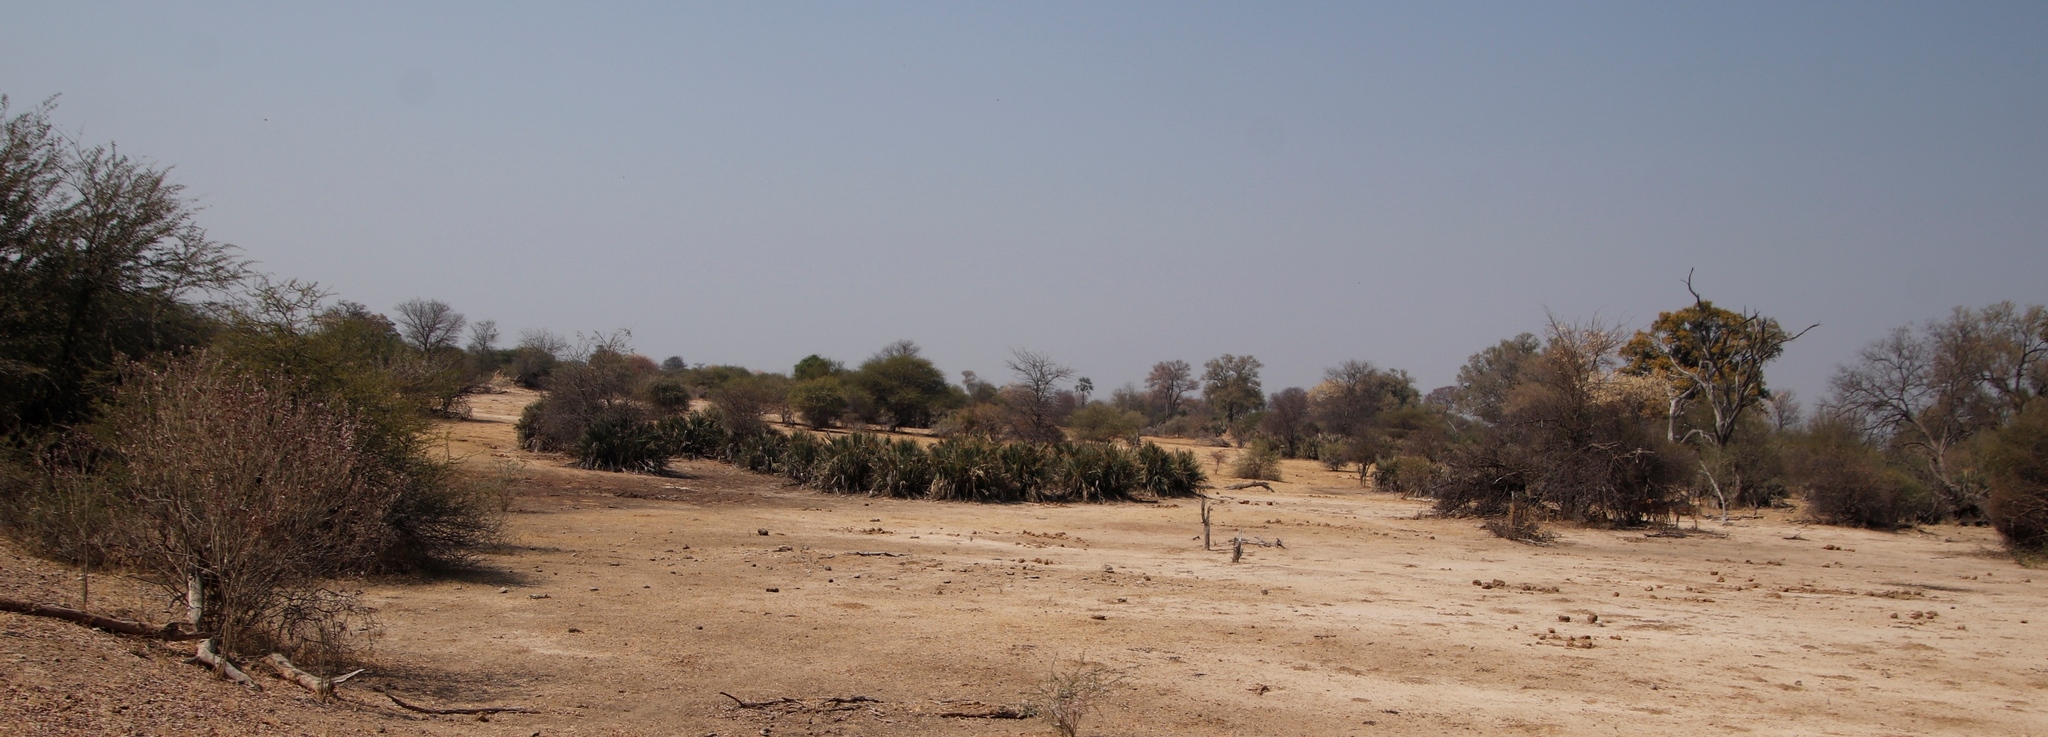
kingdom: Plantae
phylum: Tracheophyta
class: Liliopsida
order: Arecales
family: Arecaceae
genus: Hyphaene
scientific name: Hyphaene petersiana
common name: African ivory nut palm
